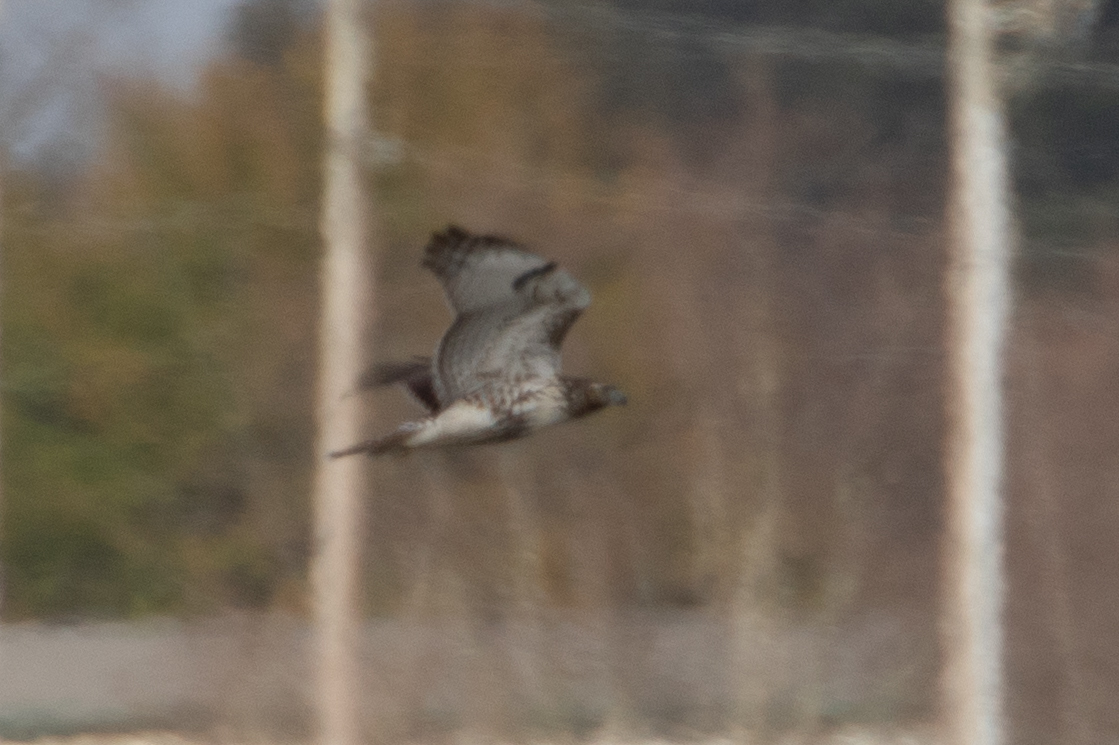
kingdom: Animalia
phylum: Chordata
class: Aves
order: Accipitriformes
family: Accipitridae
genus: Buteo
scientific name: Buteo jamaicensis
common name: Red-tailed hawk
